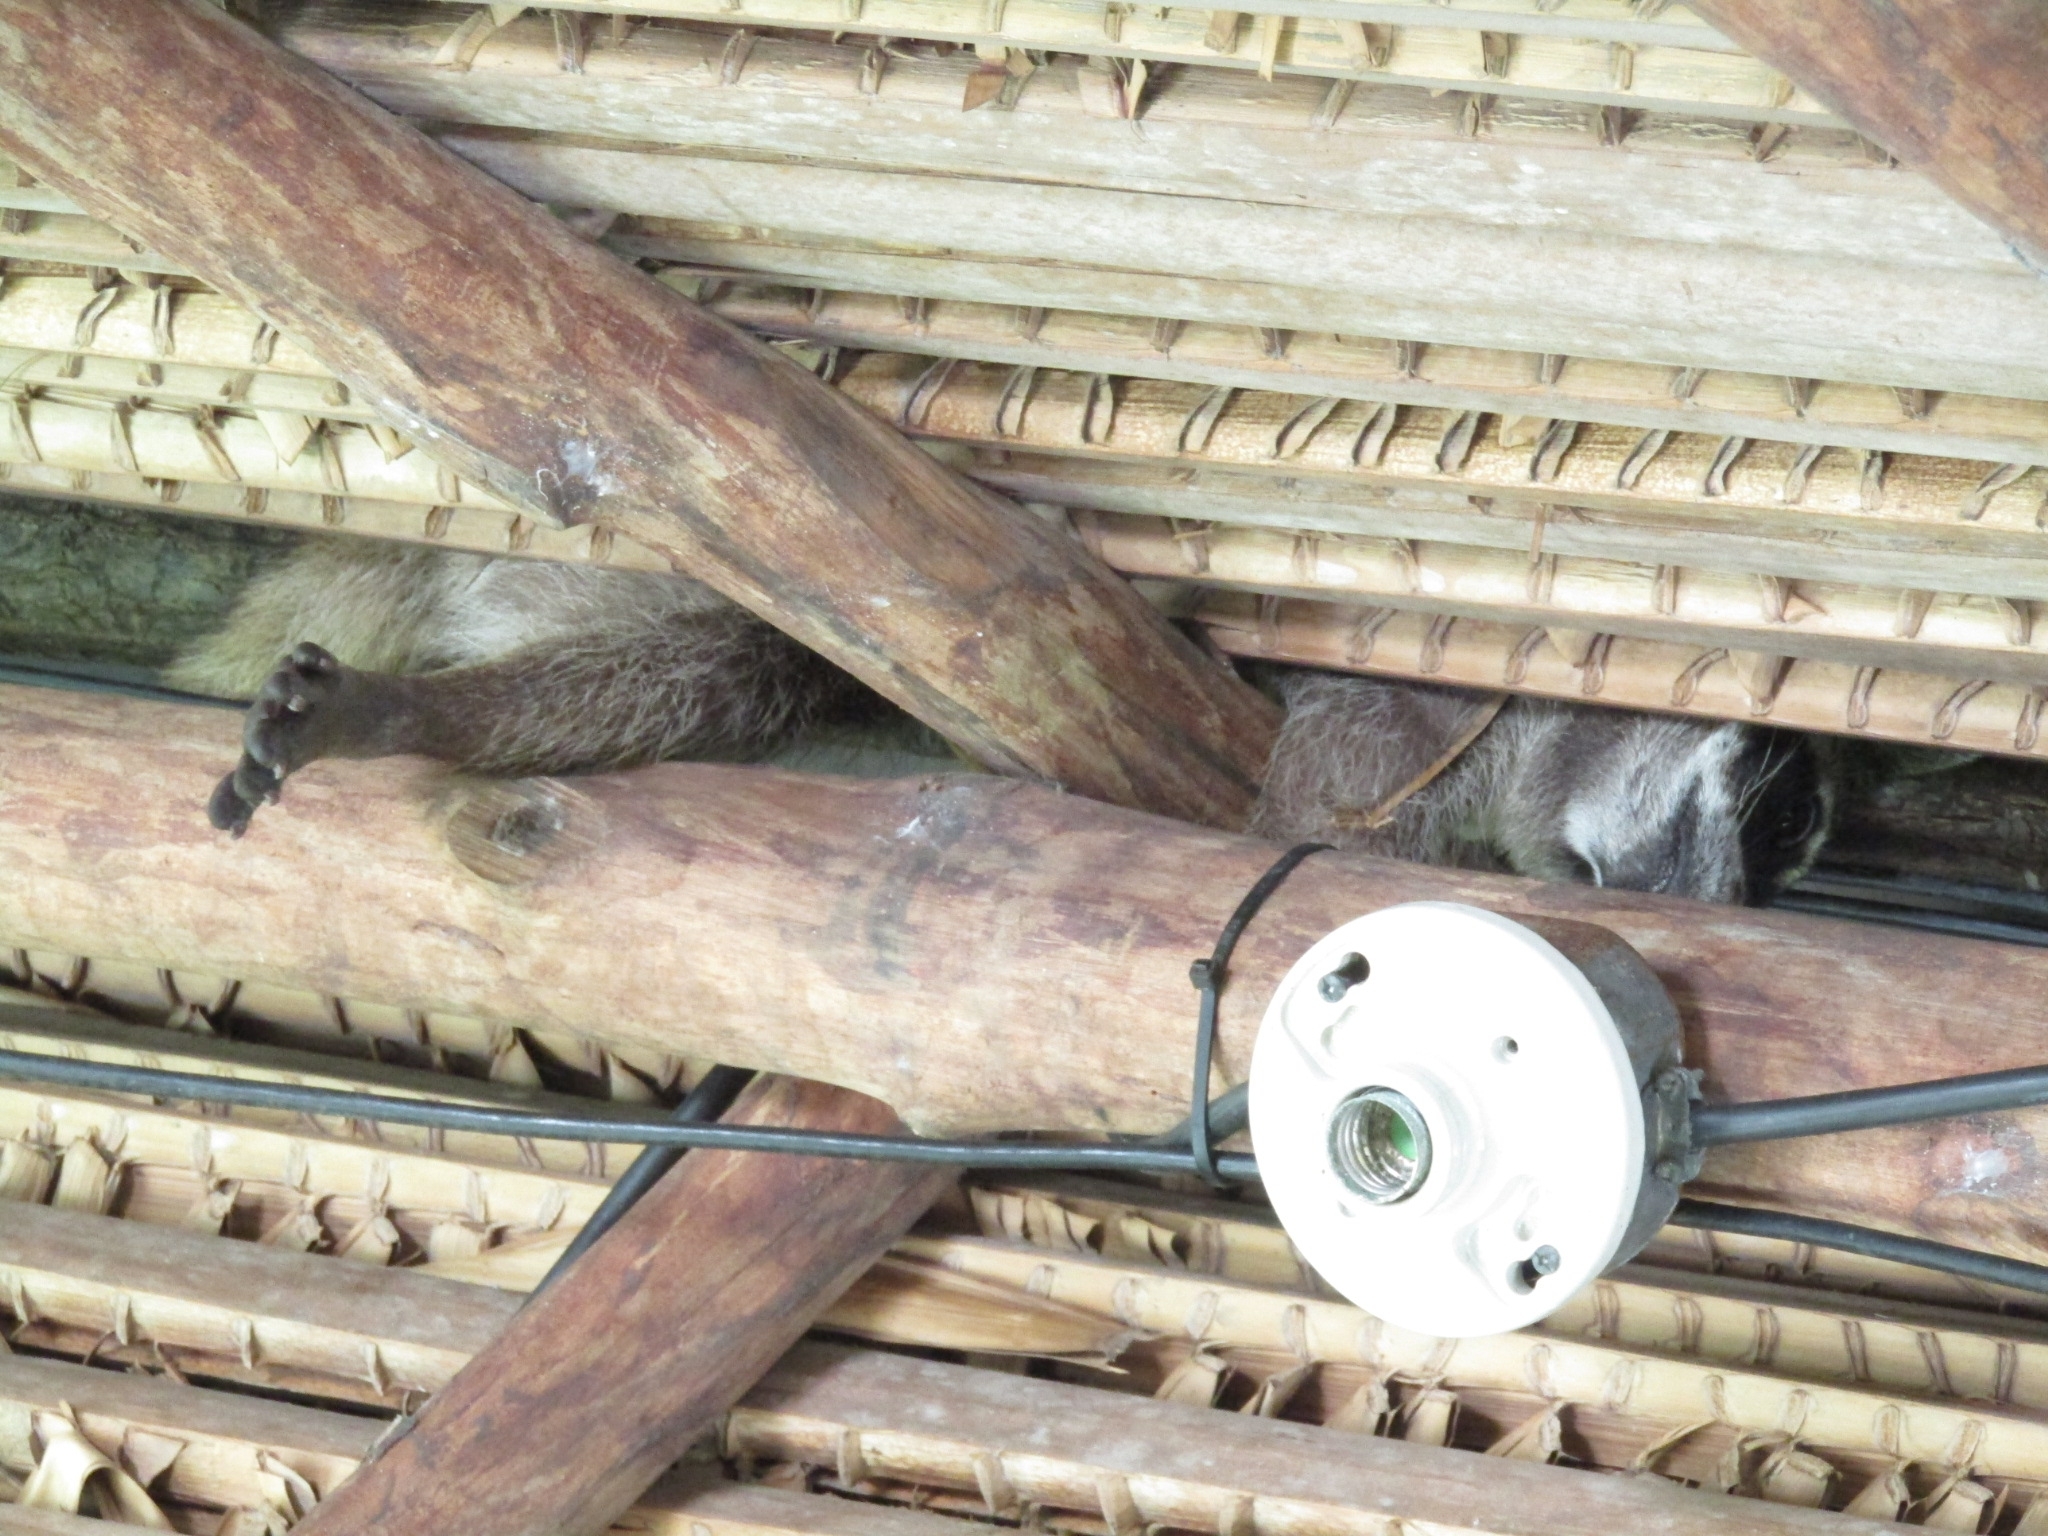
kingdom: Animalia
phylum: Chordata
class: Mammalia
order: Carnivora
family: Procyonidae
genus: Procyon
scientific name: Procyon lotor
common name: Raccoon
